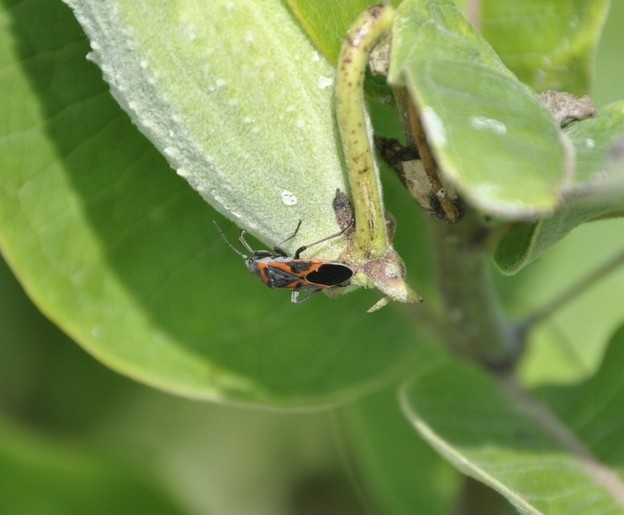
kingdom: Animalia
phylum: Arthropoda
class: Insecta
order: Hemiptera
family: Lygaeidae
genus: Lygaeus
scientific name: Lygaeus kalmii
